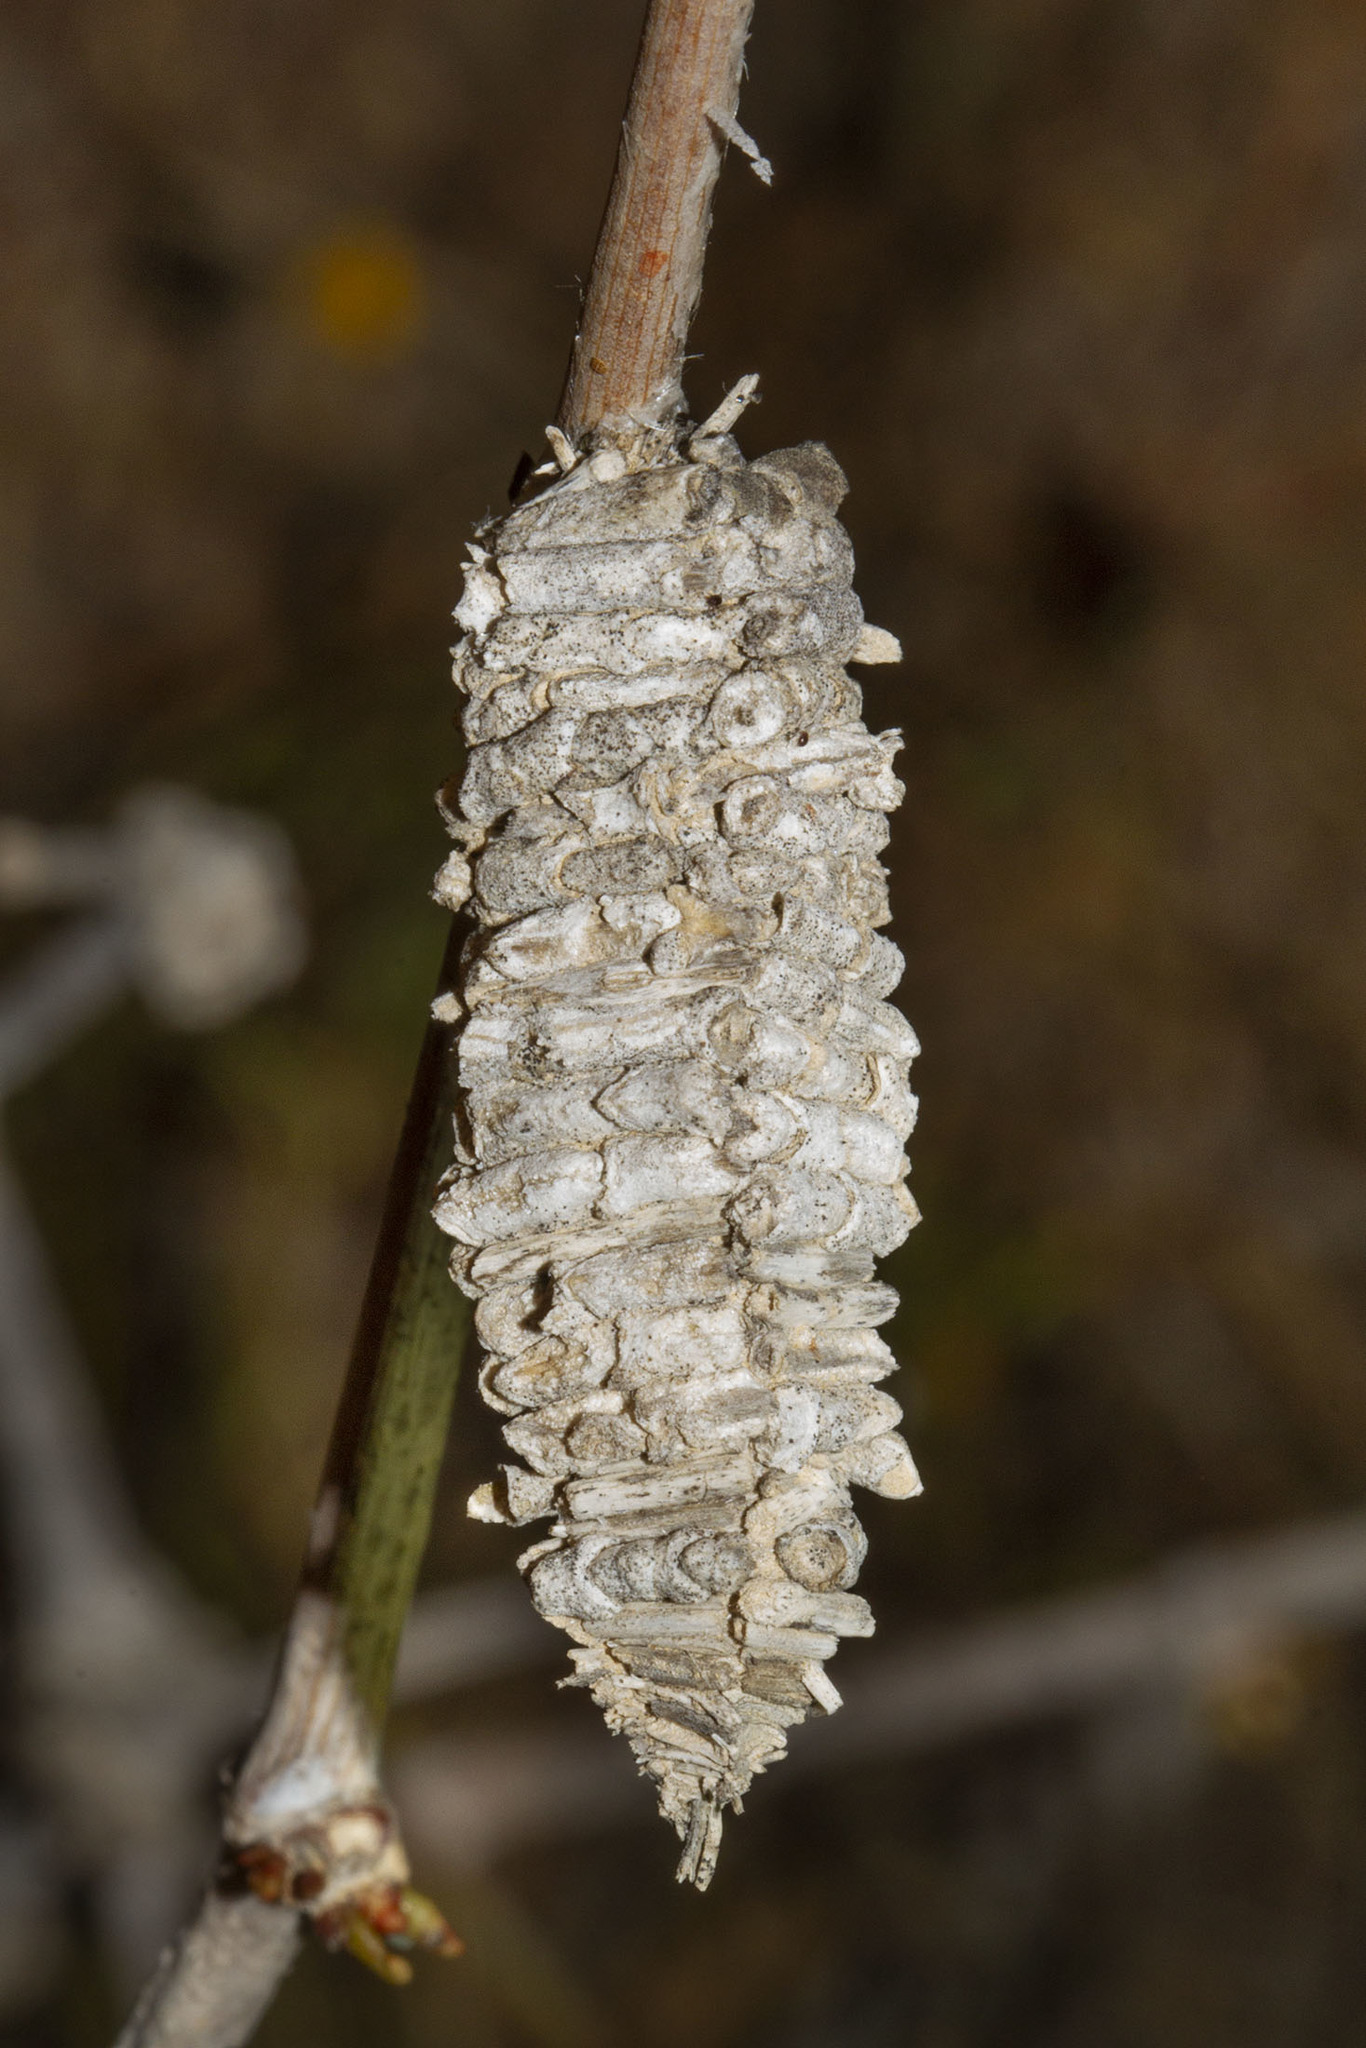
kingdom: Animalia
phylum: Arthropoda
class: Insecta
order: Lepidoptera
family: Psychidae
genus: Amicta
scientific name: Amicta quadrangularis
